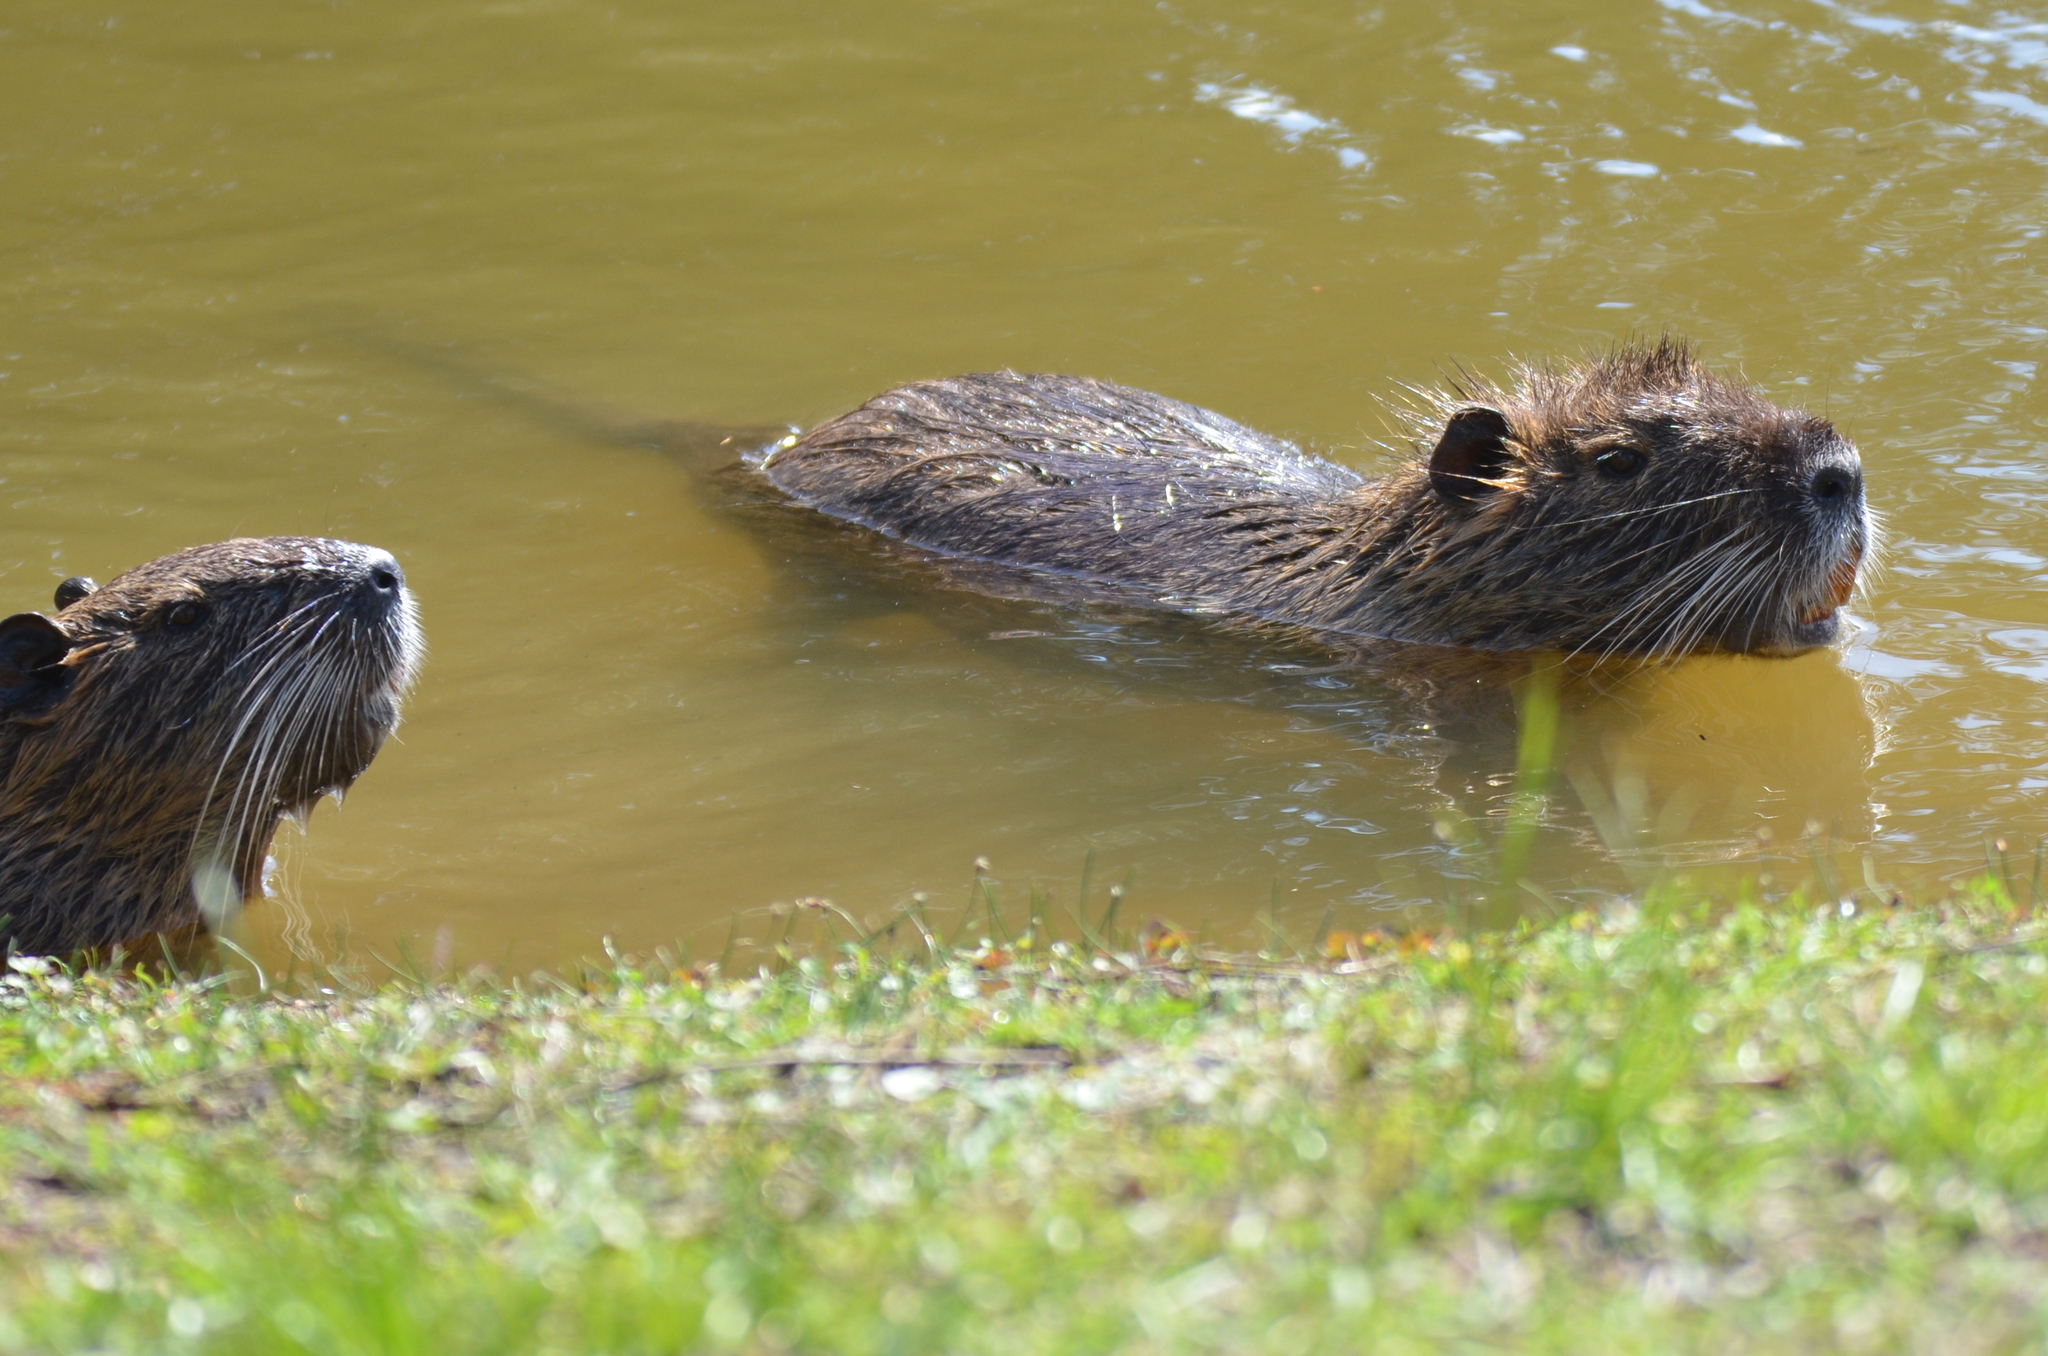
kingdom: Animalia
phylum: Chordata
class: Mammalia
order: Rodentia
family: Myocastoridae
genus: Myocastor
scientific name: Myocastor coypus
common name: Coypu
